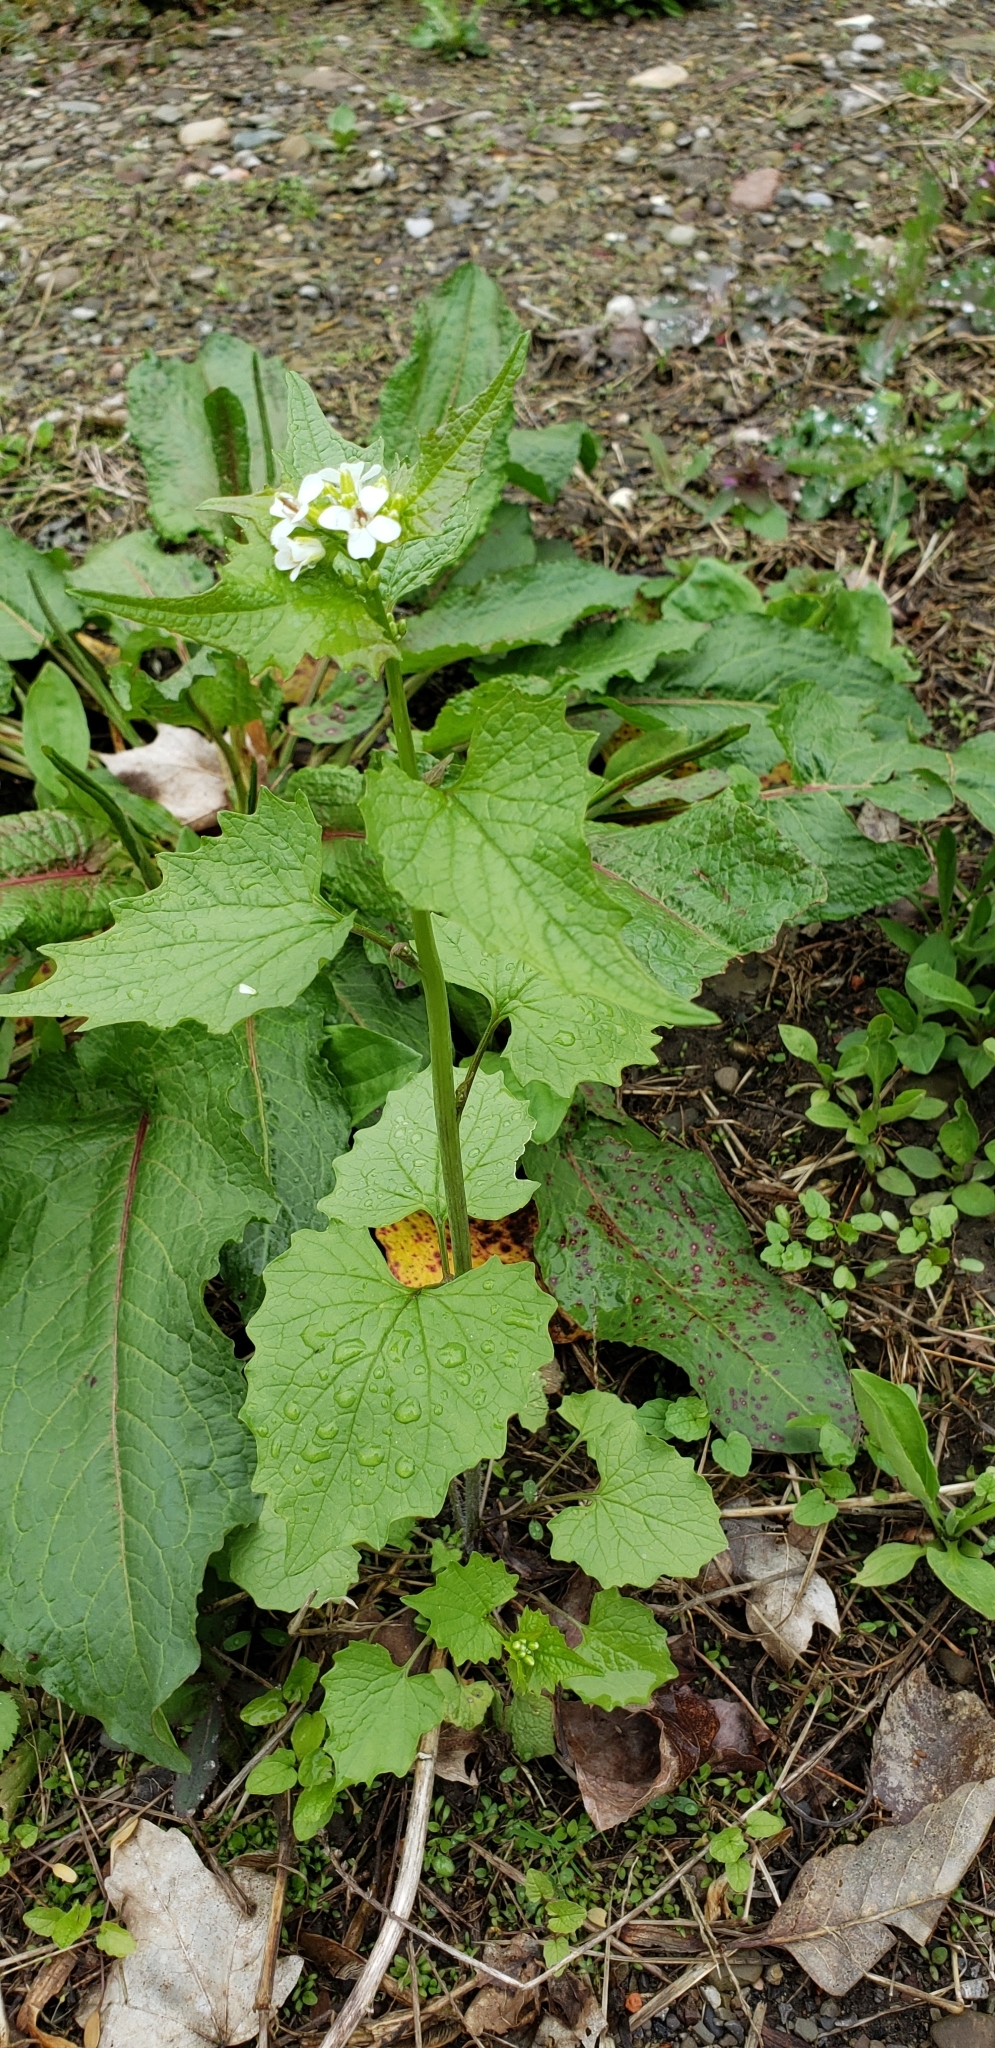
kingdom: Plantae
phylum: Tracheophyta
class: Magnoliopsida
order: Brassicales
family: Brassicaceae
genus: Alliaria
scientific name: Alliaria petiolata
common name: Garlic mustard
